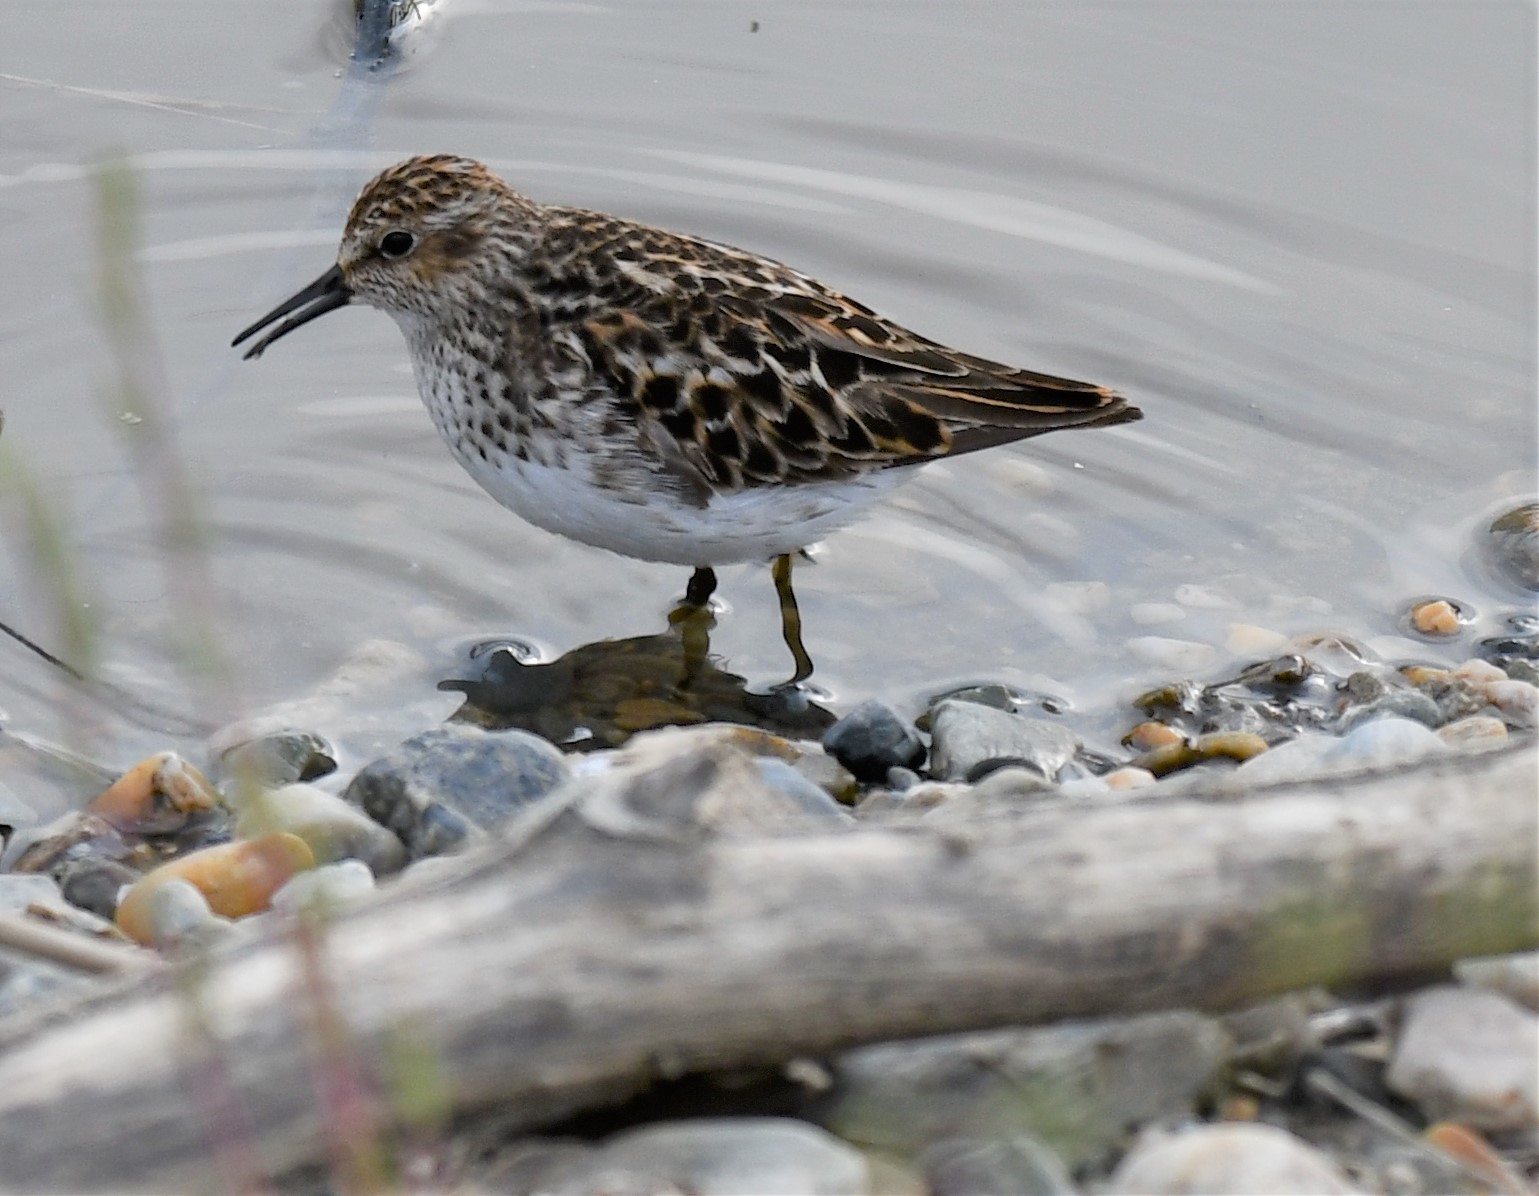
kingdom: Animalia
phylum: Chordata
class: Aves
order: Charadriiformes
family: Scolopacidae
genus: Calidris
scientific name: Calidris minutilla
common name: Least sandpiper
